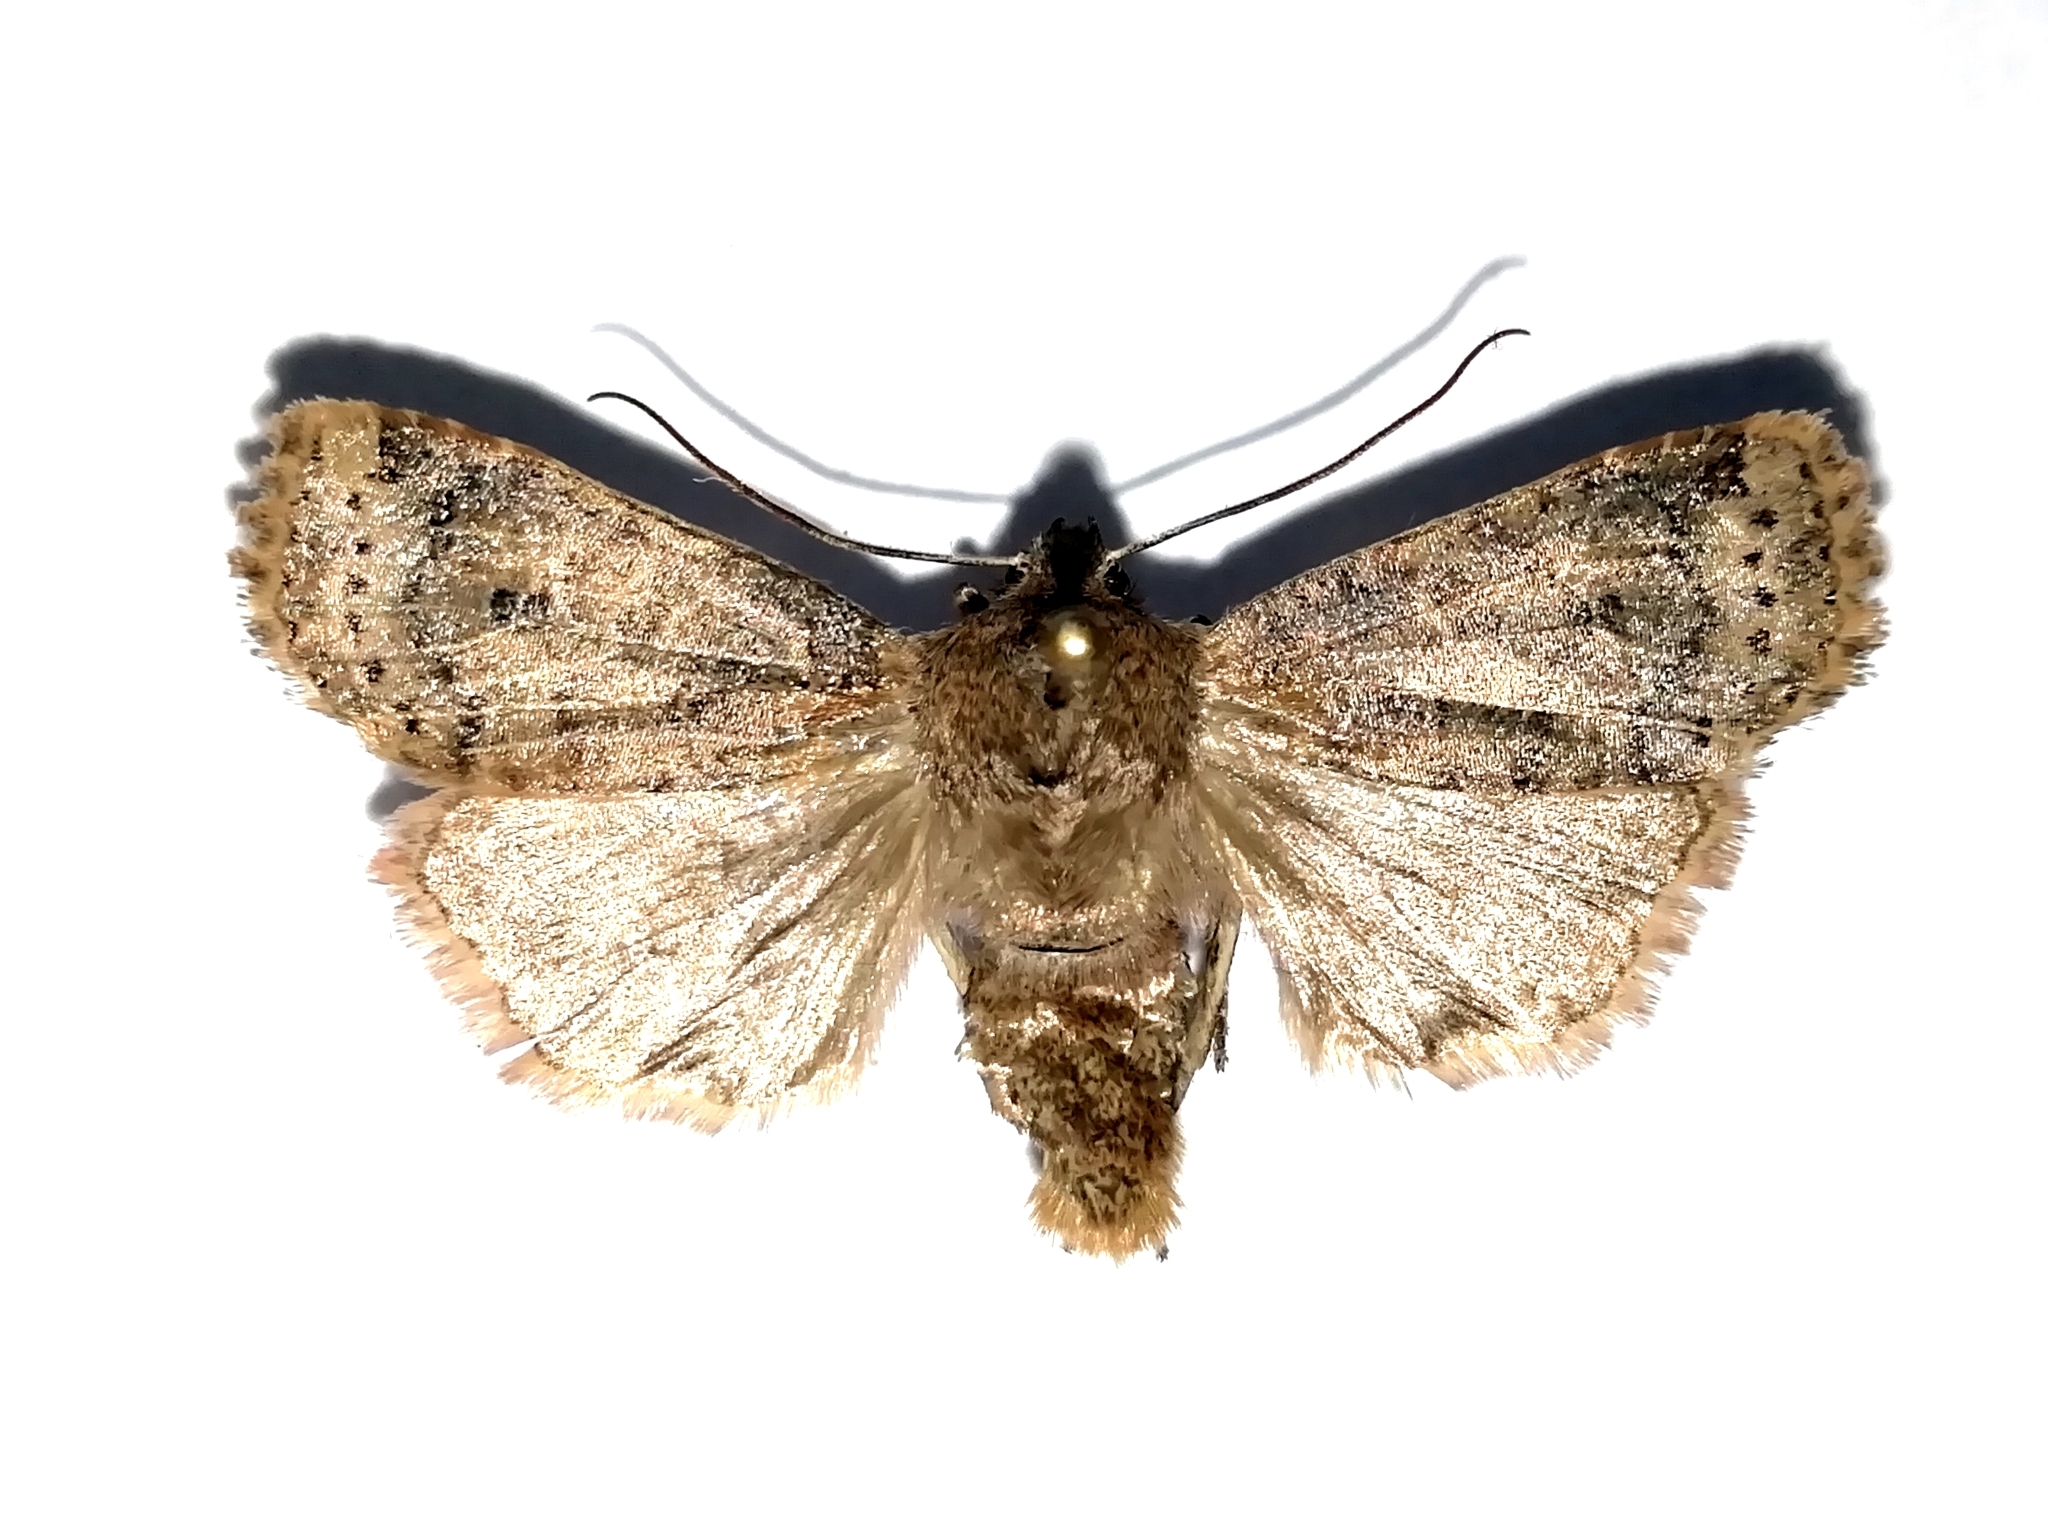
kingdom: Animalia
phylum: Arthropoda
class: Insecta
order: Lepidoptera
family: Noctuidae
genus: Conistra
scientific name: Conistra vaccinii
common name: Chestnut
